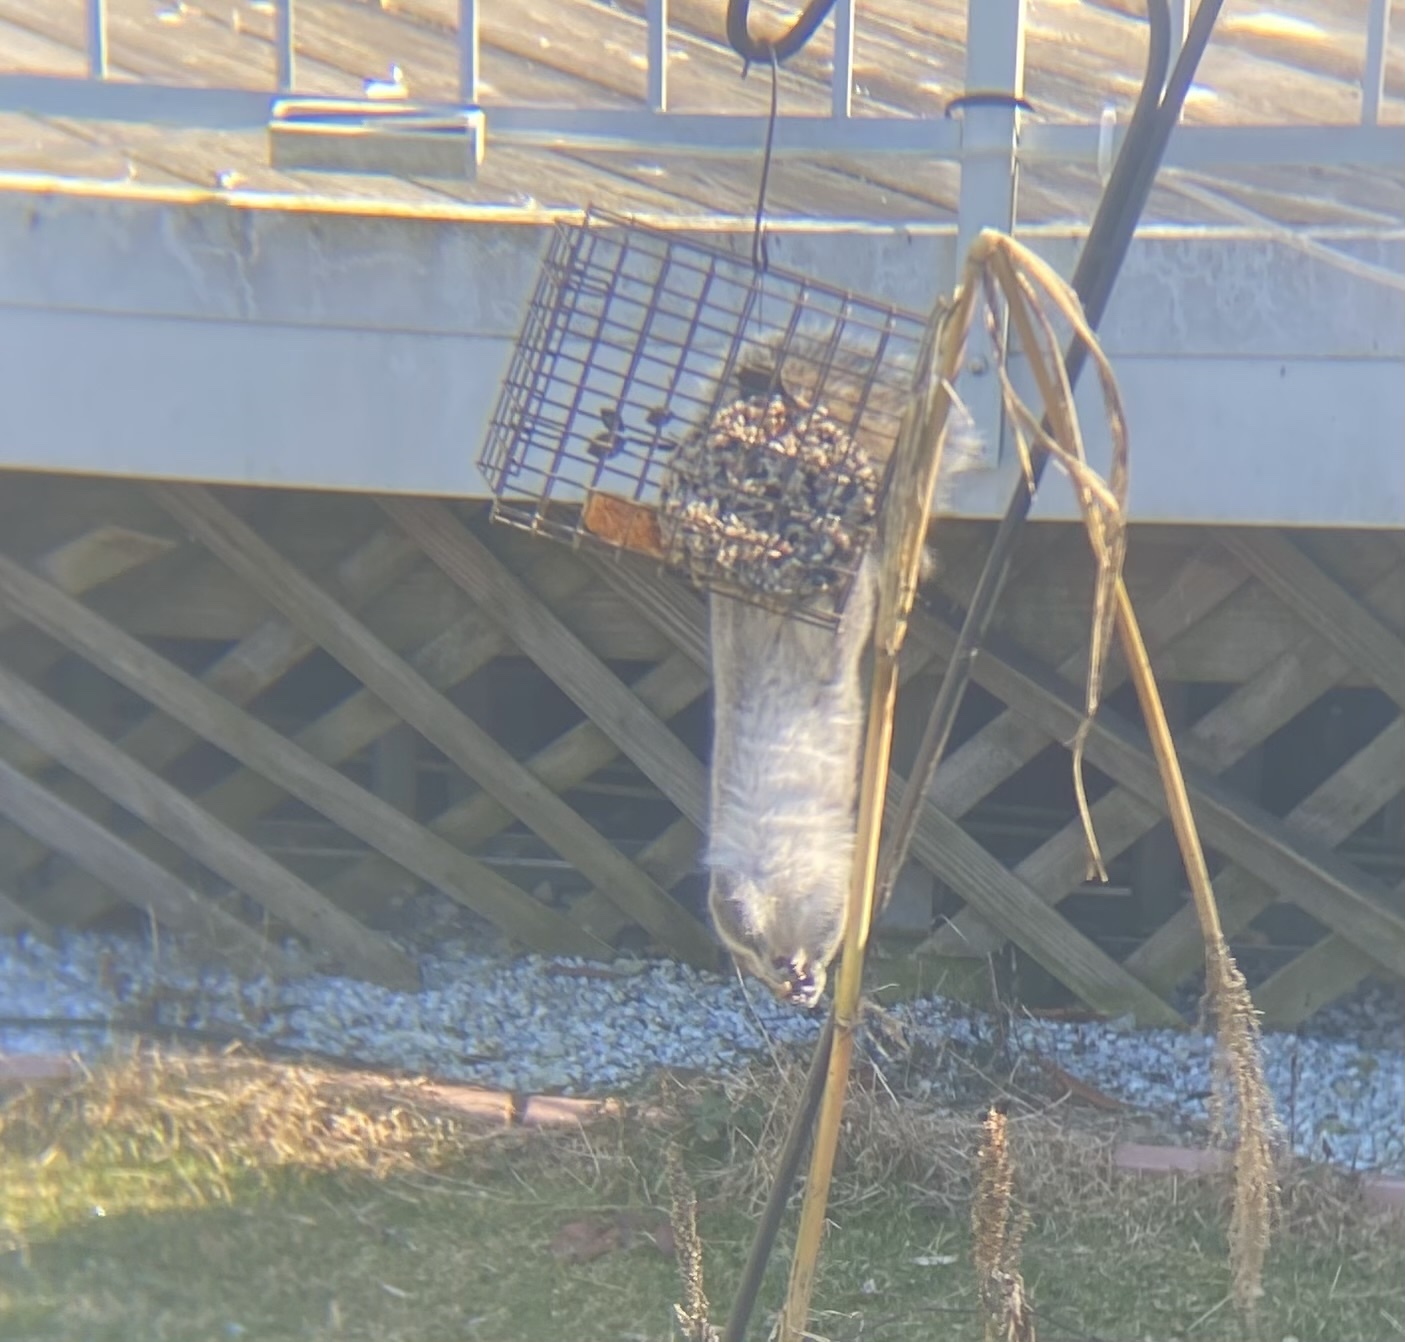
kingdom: Animalia
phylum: Chordata
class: Mammalia
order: Rodentia
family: Sciuridae
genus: Sciurus
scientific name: Sciurus carolinensis
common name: Eastern gray squirrel
